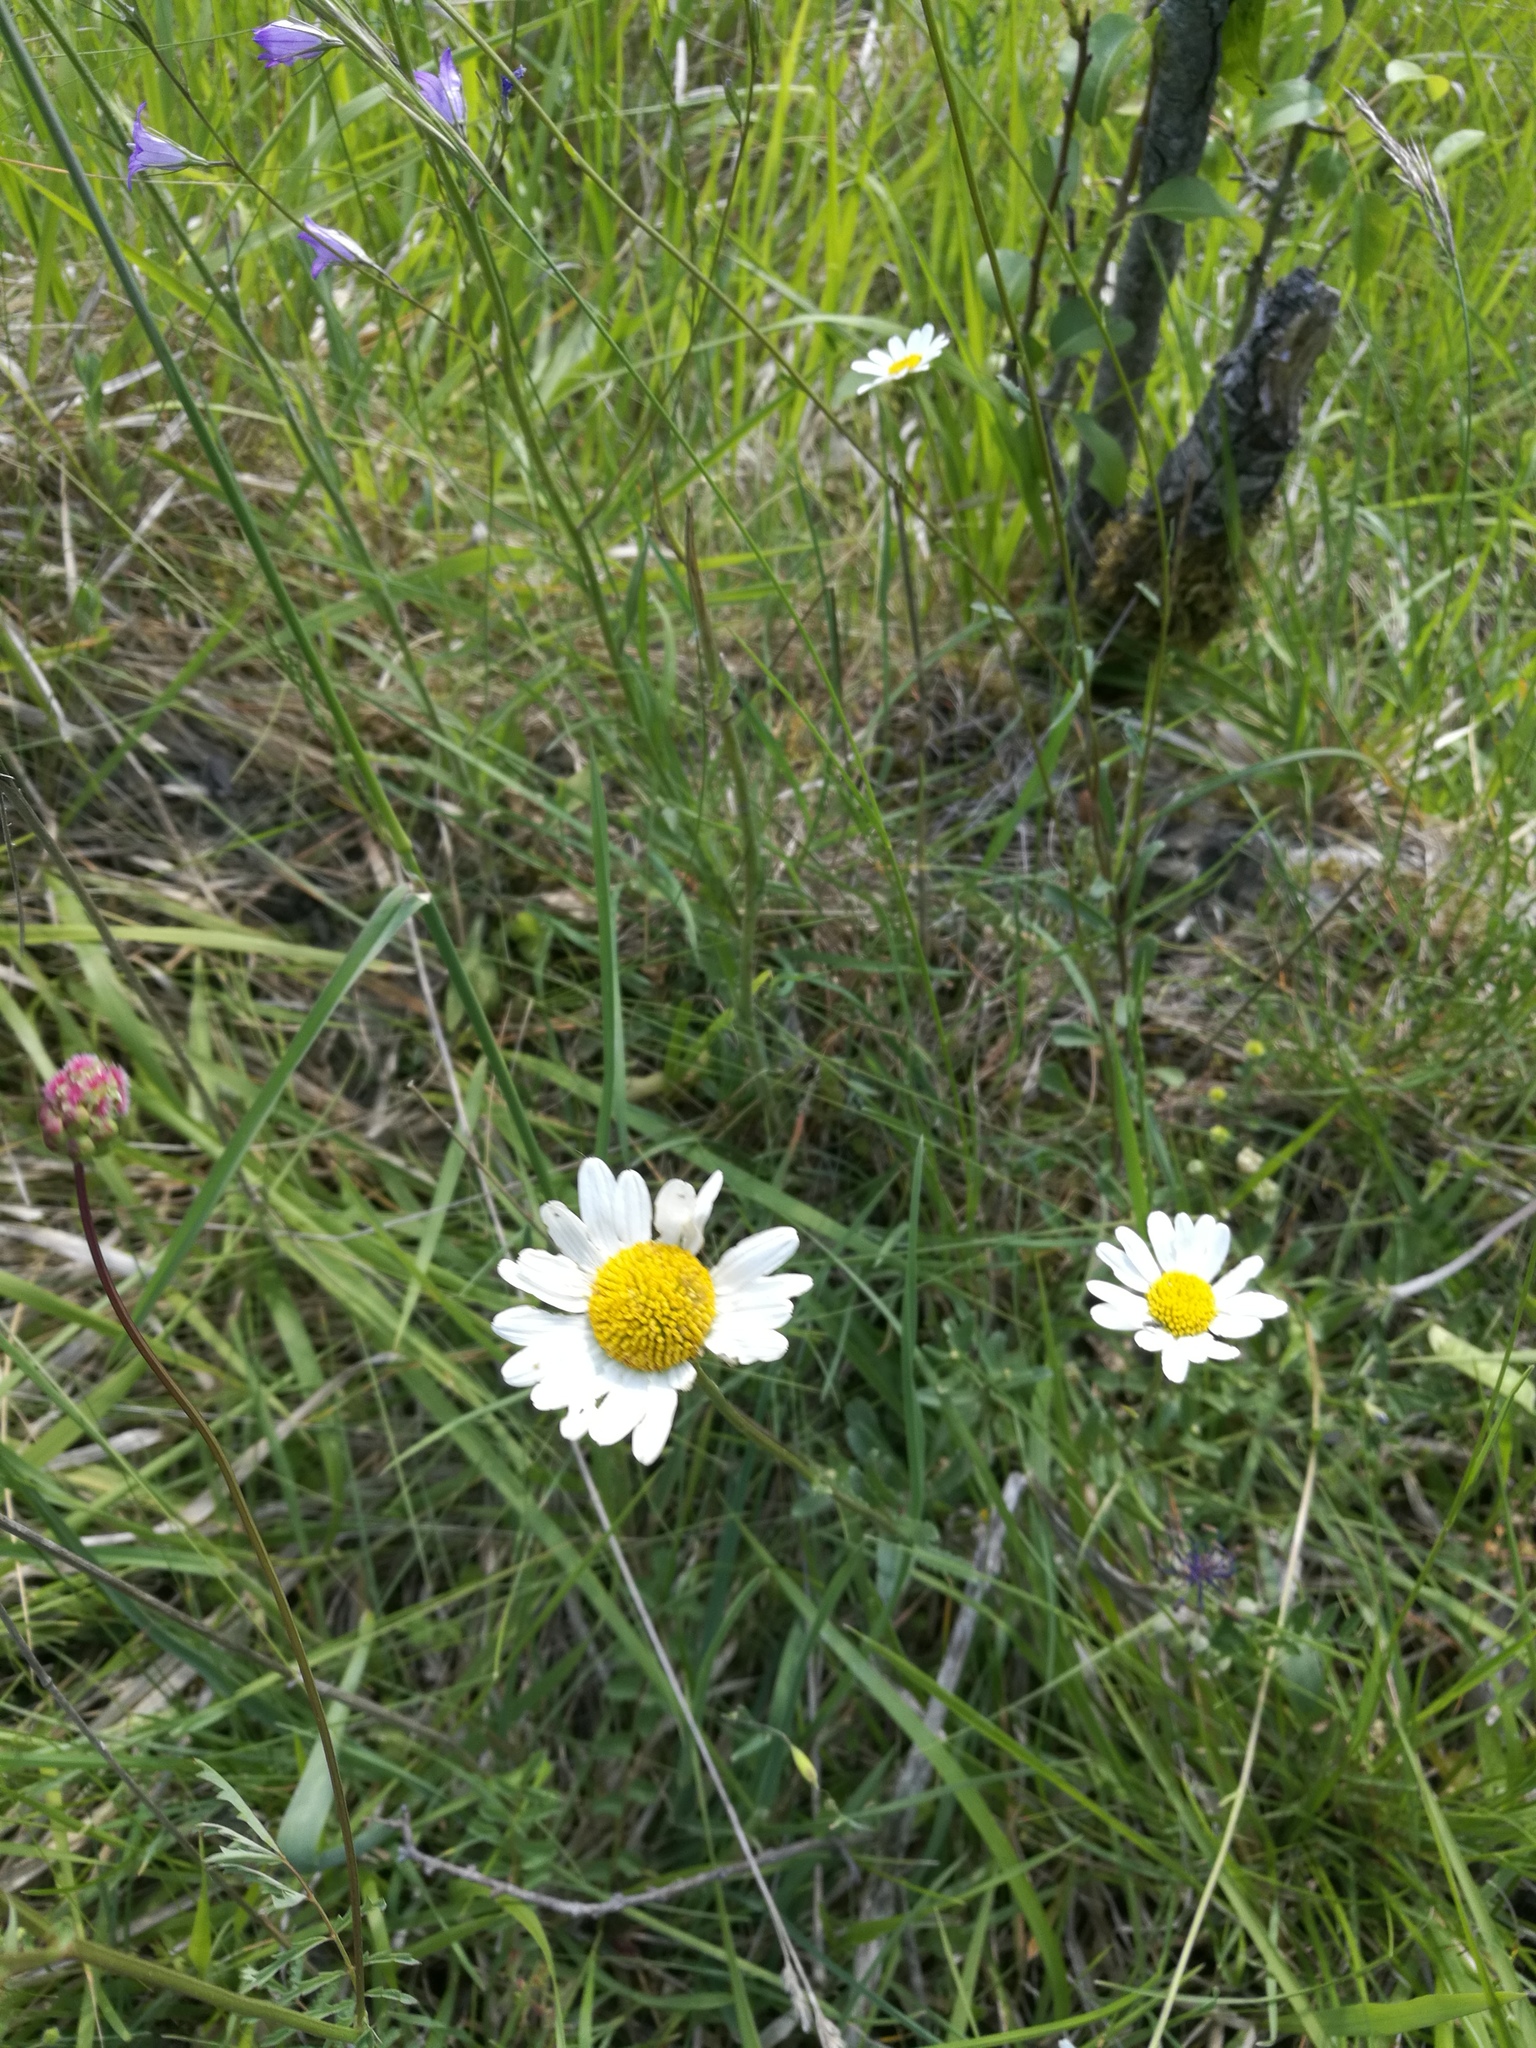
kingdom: Plantae
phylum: Tracheophyta
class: Magnoliopsida
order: Asterales
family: Asteraceae
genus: Bellis
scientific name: Bellis perennis
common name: Lawndaisy
